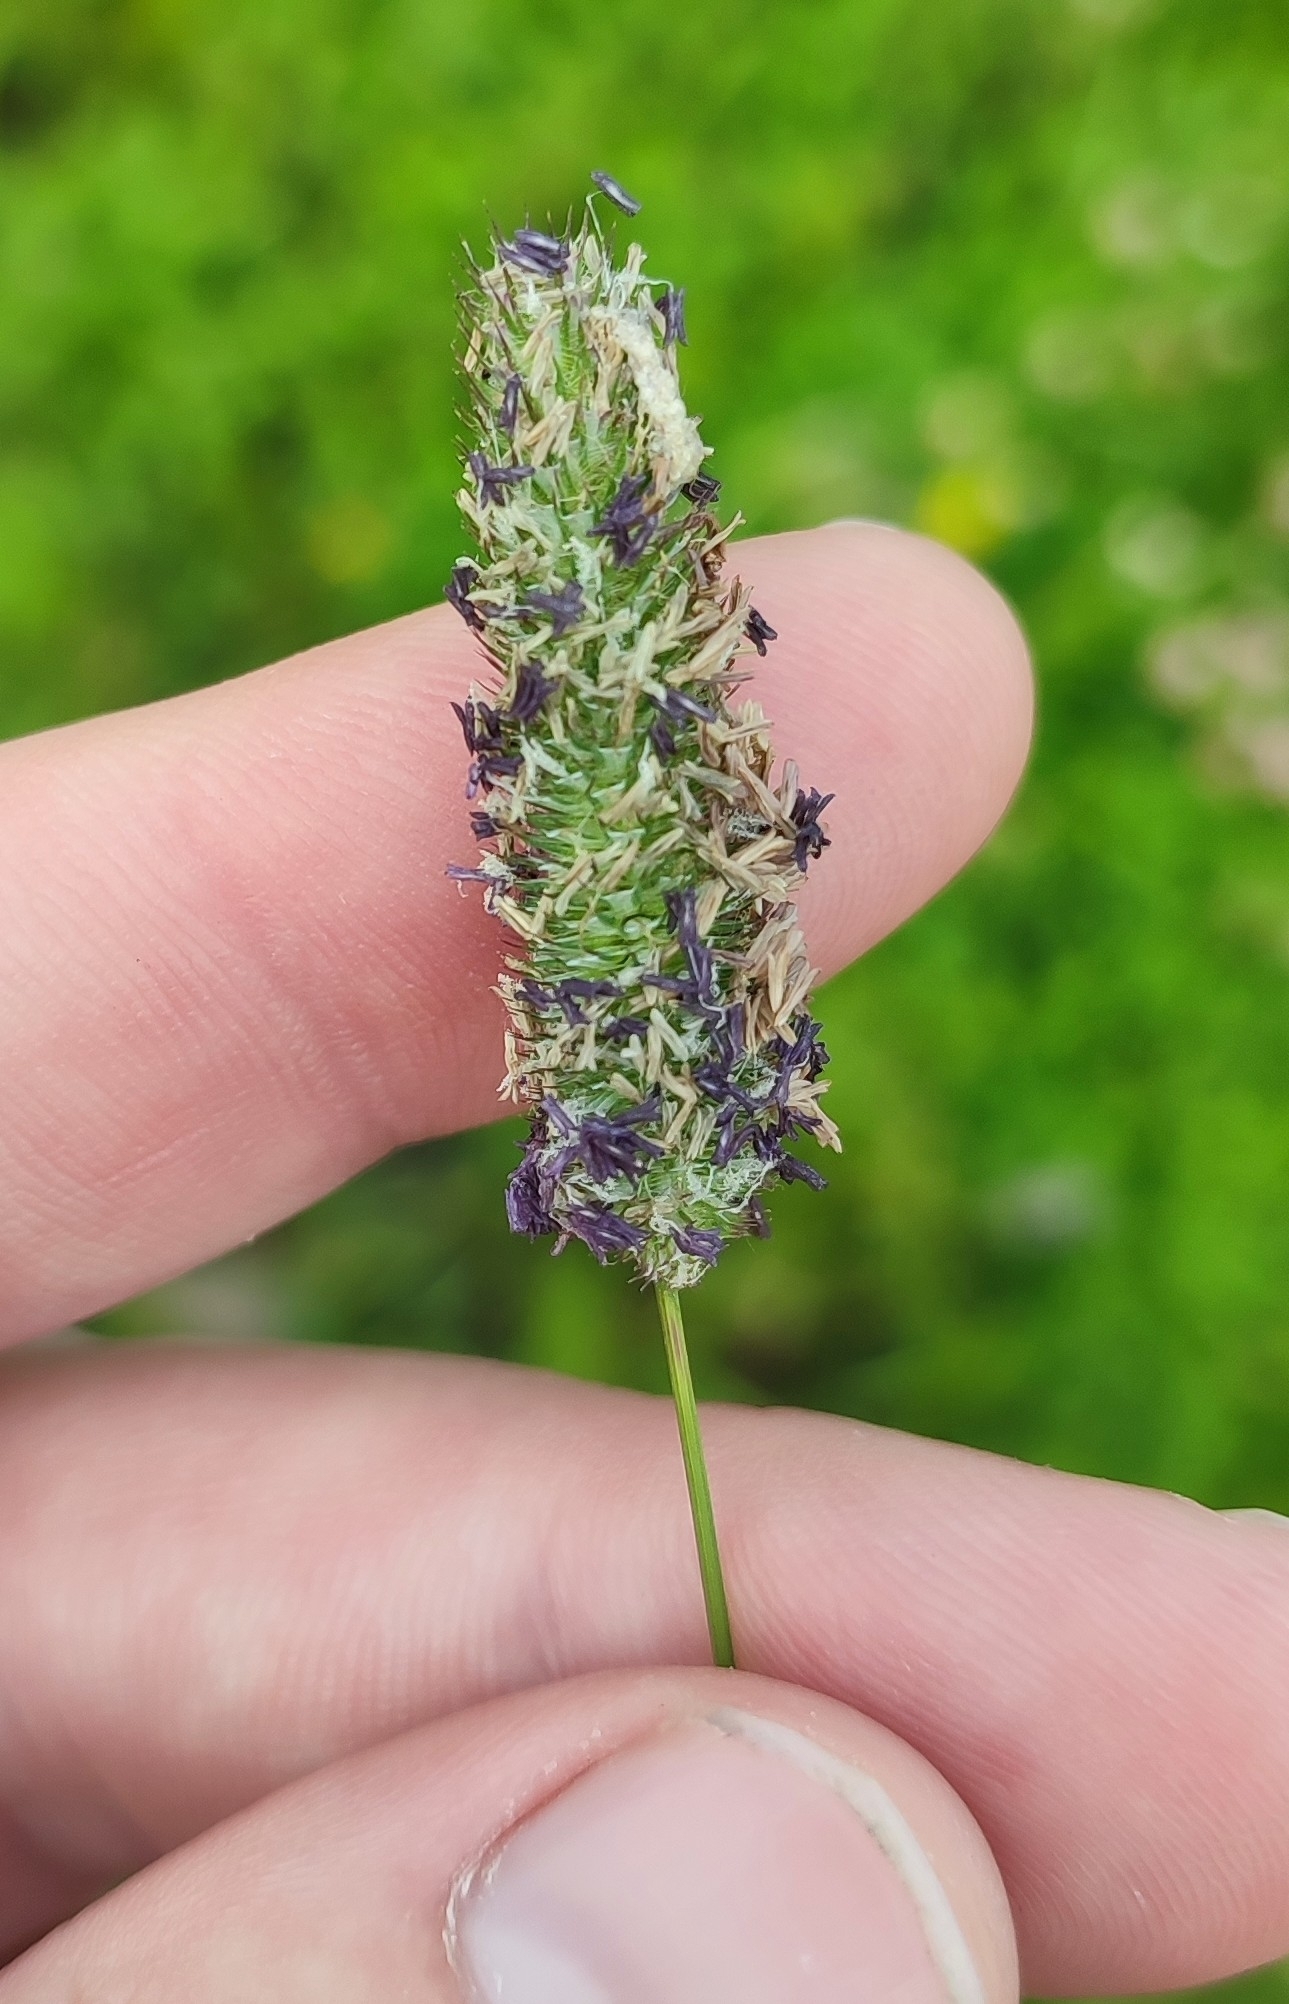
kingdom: Plantae
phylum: Tracheophyta
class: Liliopsida
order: Poales
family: Poaceae
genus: Phleum
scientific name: Phleum pratense
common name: Timothy grass
